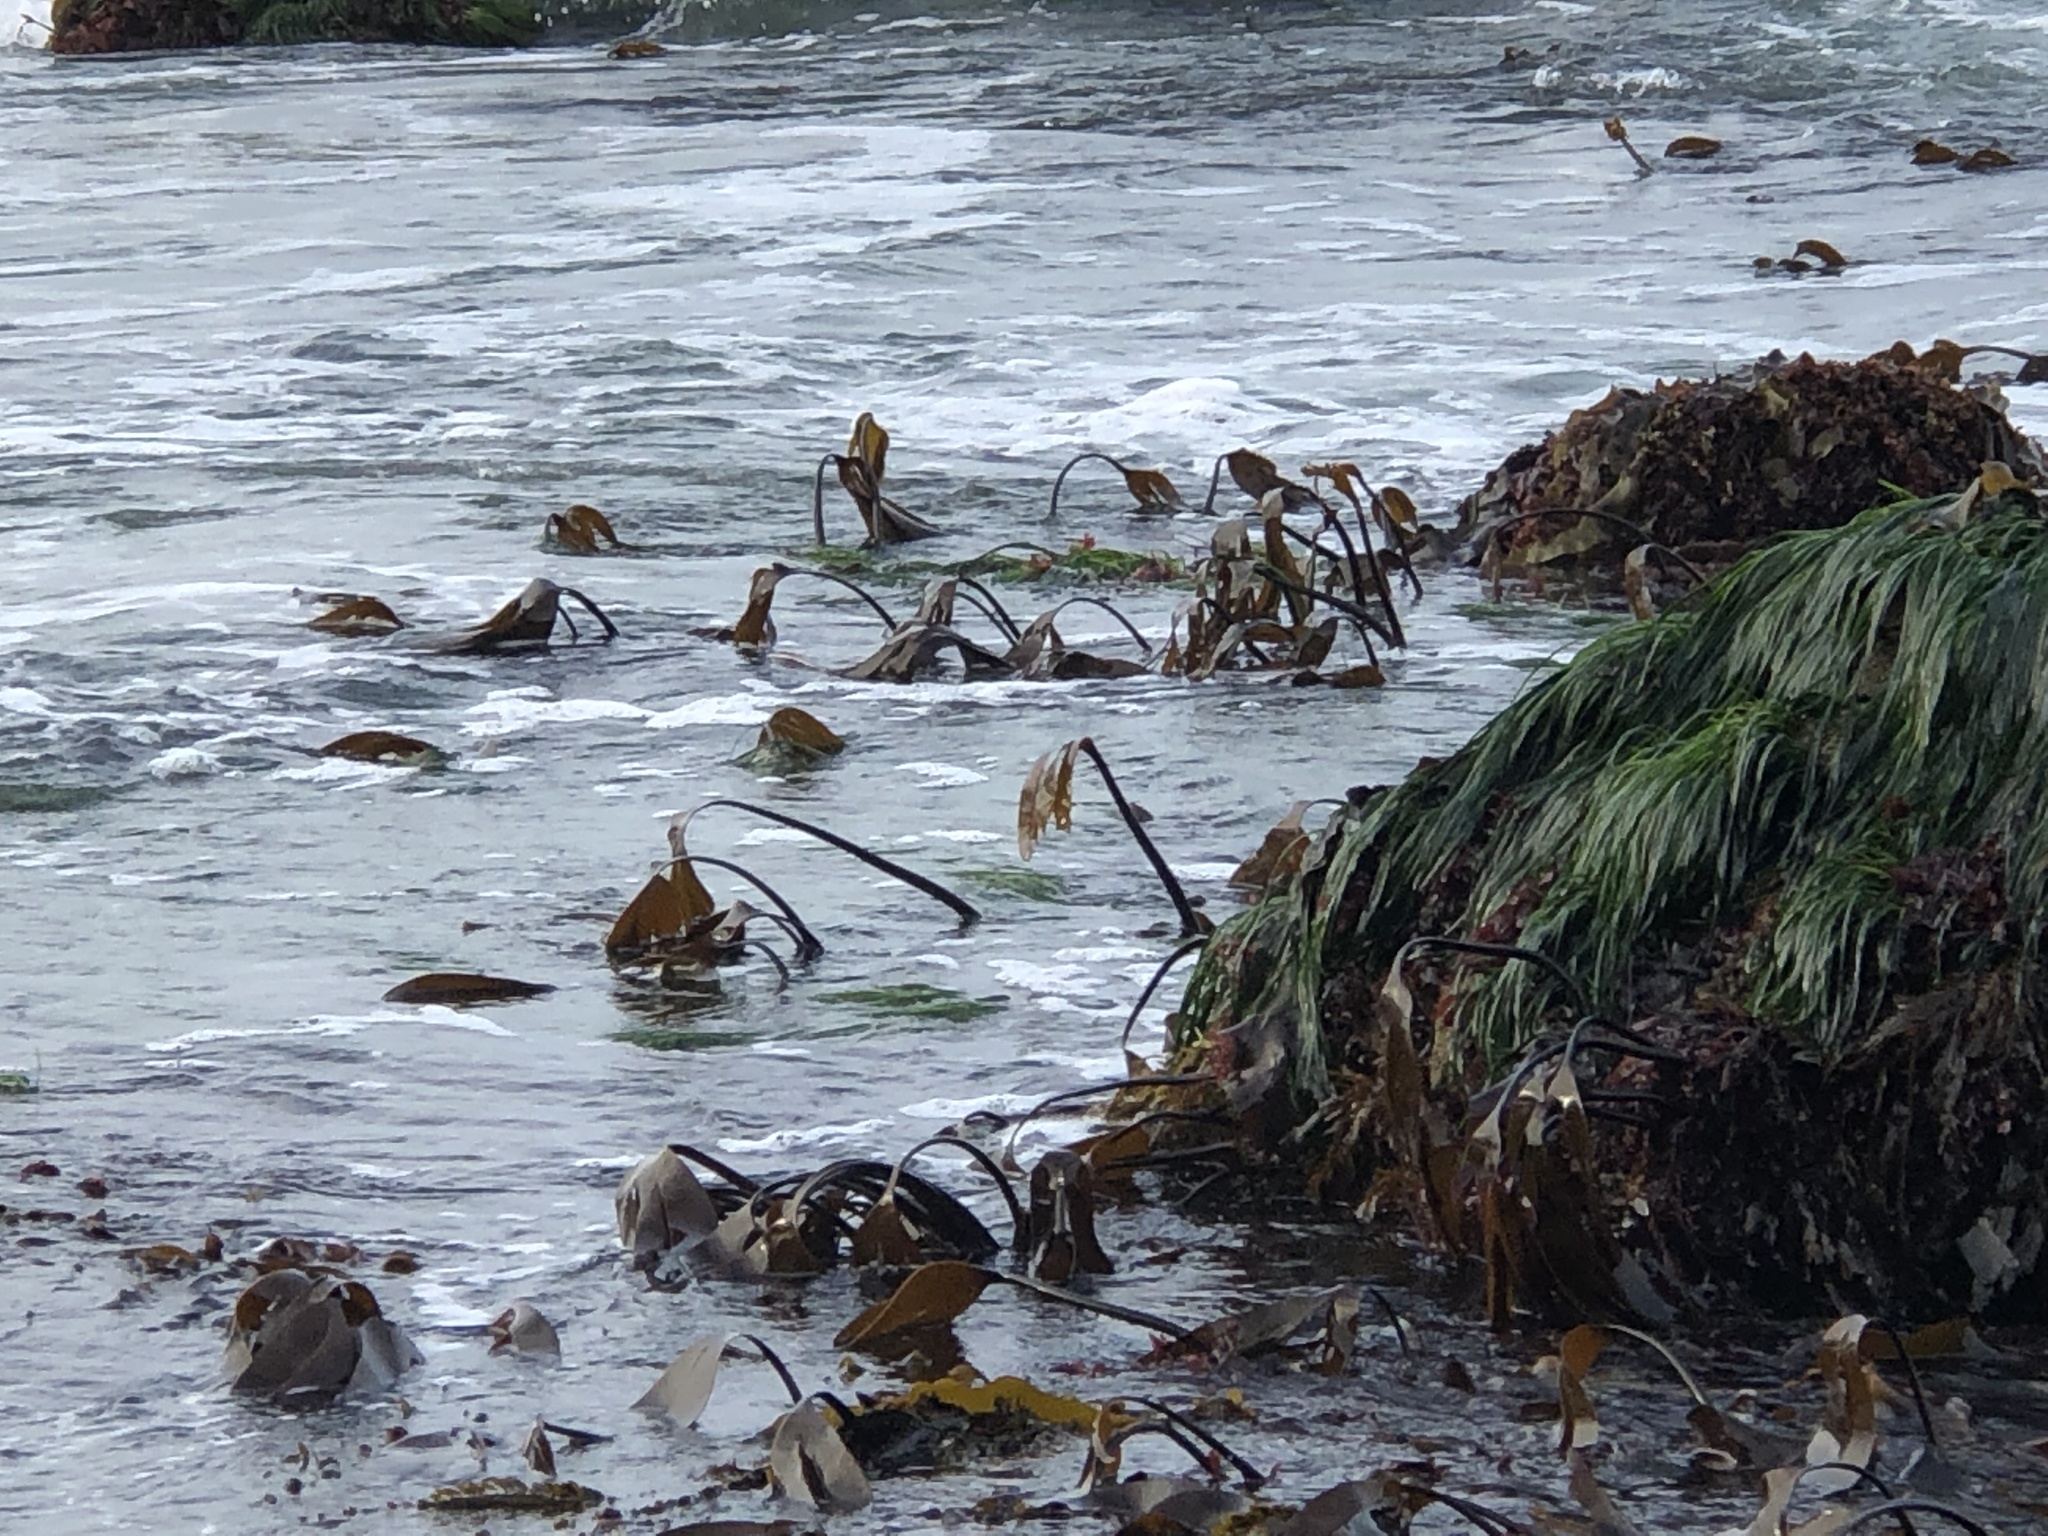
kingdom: Chromista
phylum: Ochrophyta
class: Phaeophyceae
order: Laminariales
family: Laminariaceae
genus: Laminaria
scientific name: Laminaria setchellii
